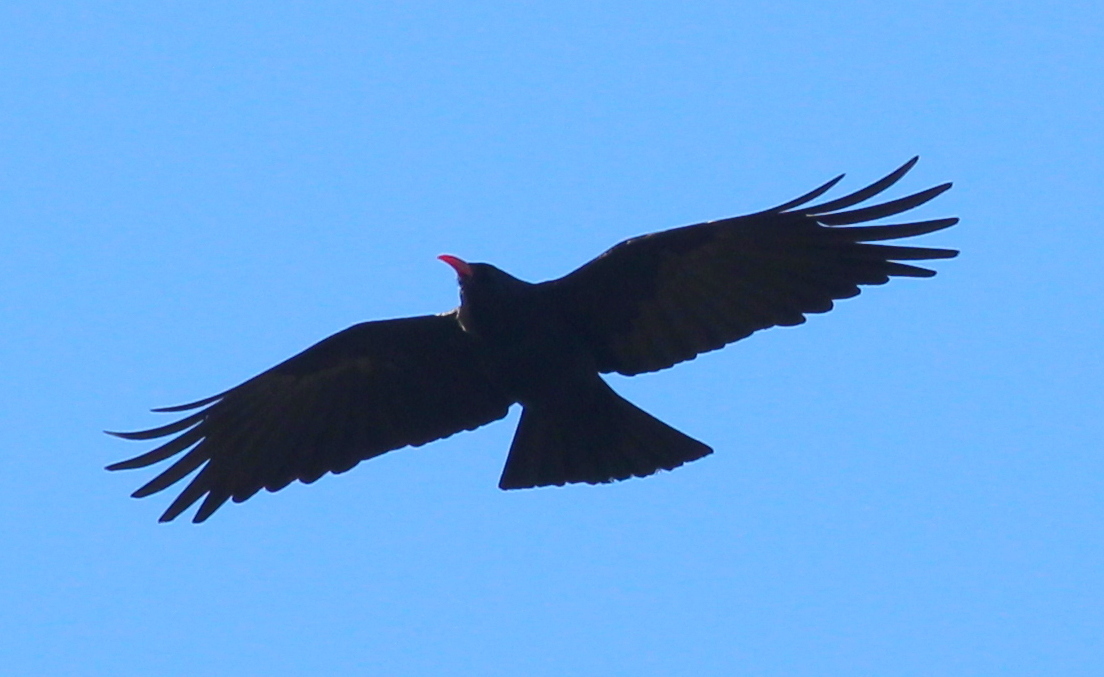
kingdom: Animalia
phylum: Chordata
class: Aves
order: Passeriformes
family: Corvidae
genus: Pyrrhocorax
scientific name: Pyrrhocorax pyrrhocorax
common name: Red-billed chough
